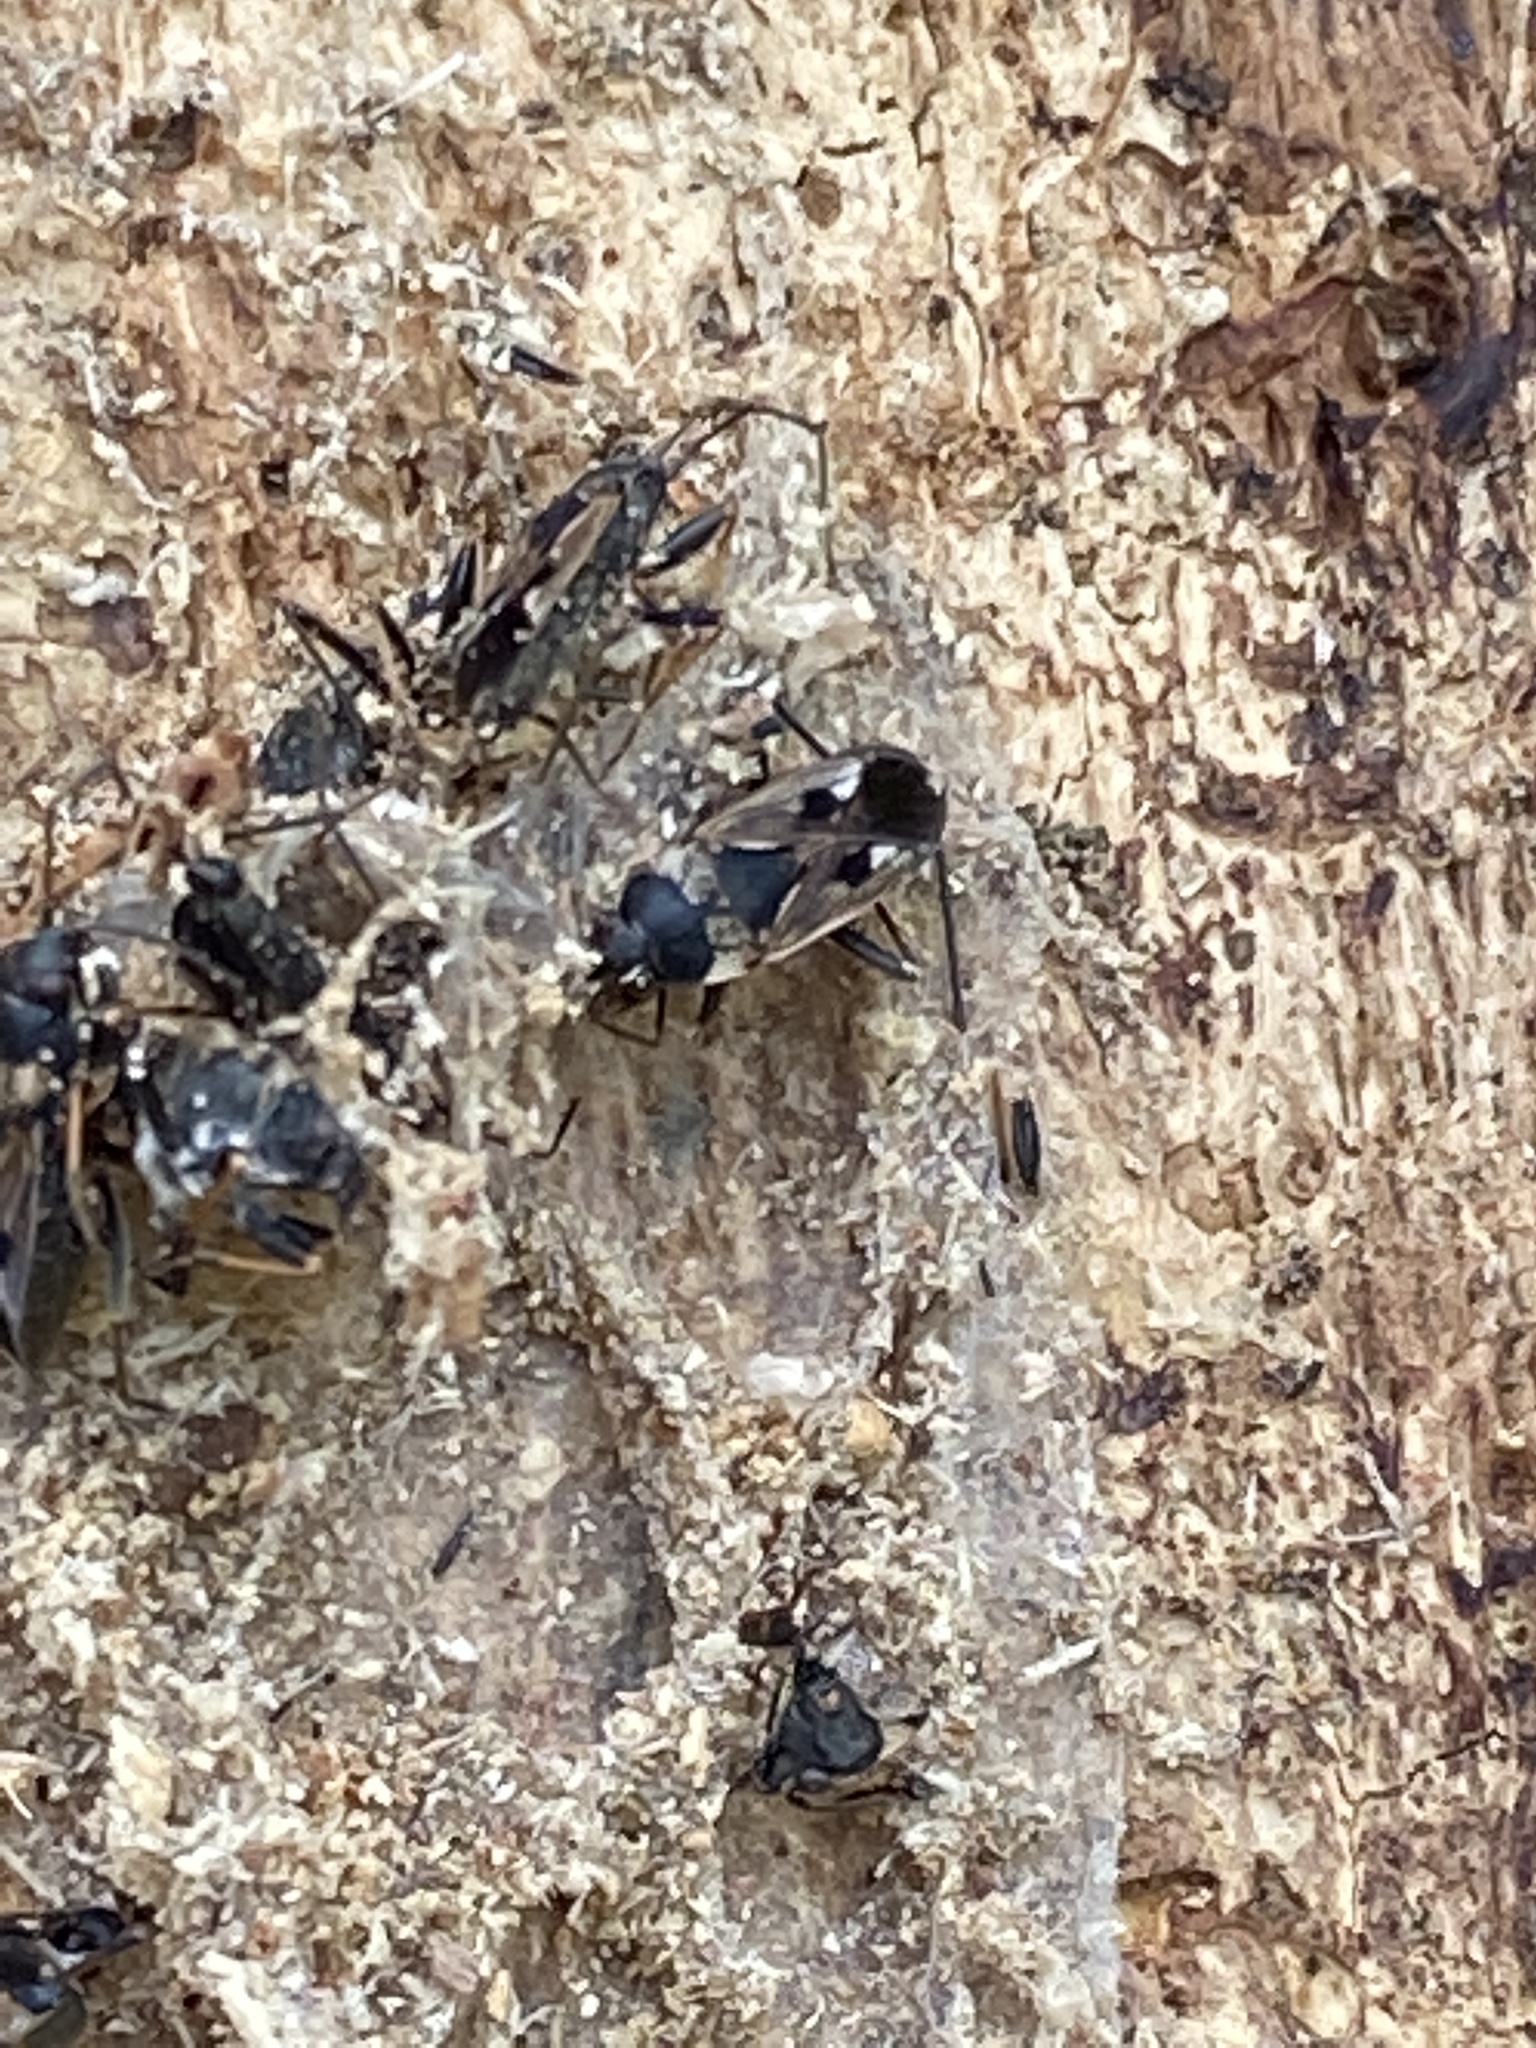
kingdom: Animalia
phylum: Arthropoda
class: Insecta
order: Hemiptera
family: Rhyparochromidae
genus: Rhyparochromus
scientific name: Rhyparochromus vulgaris
